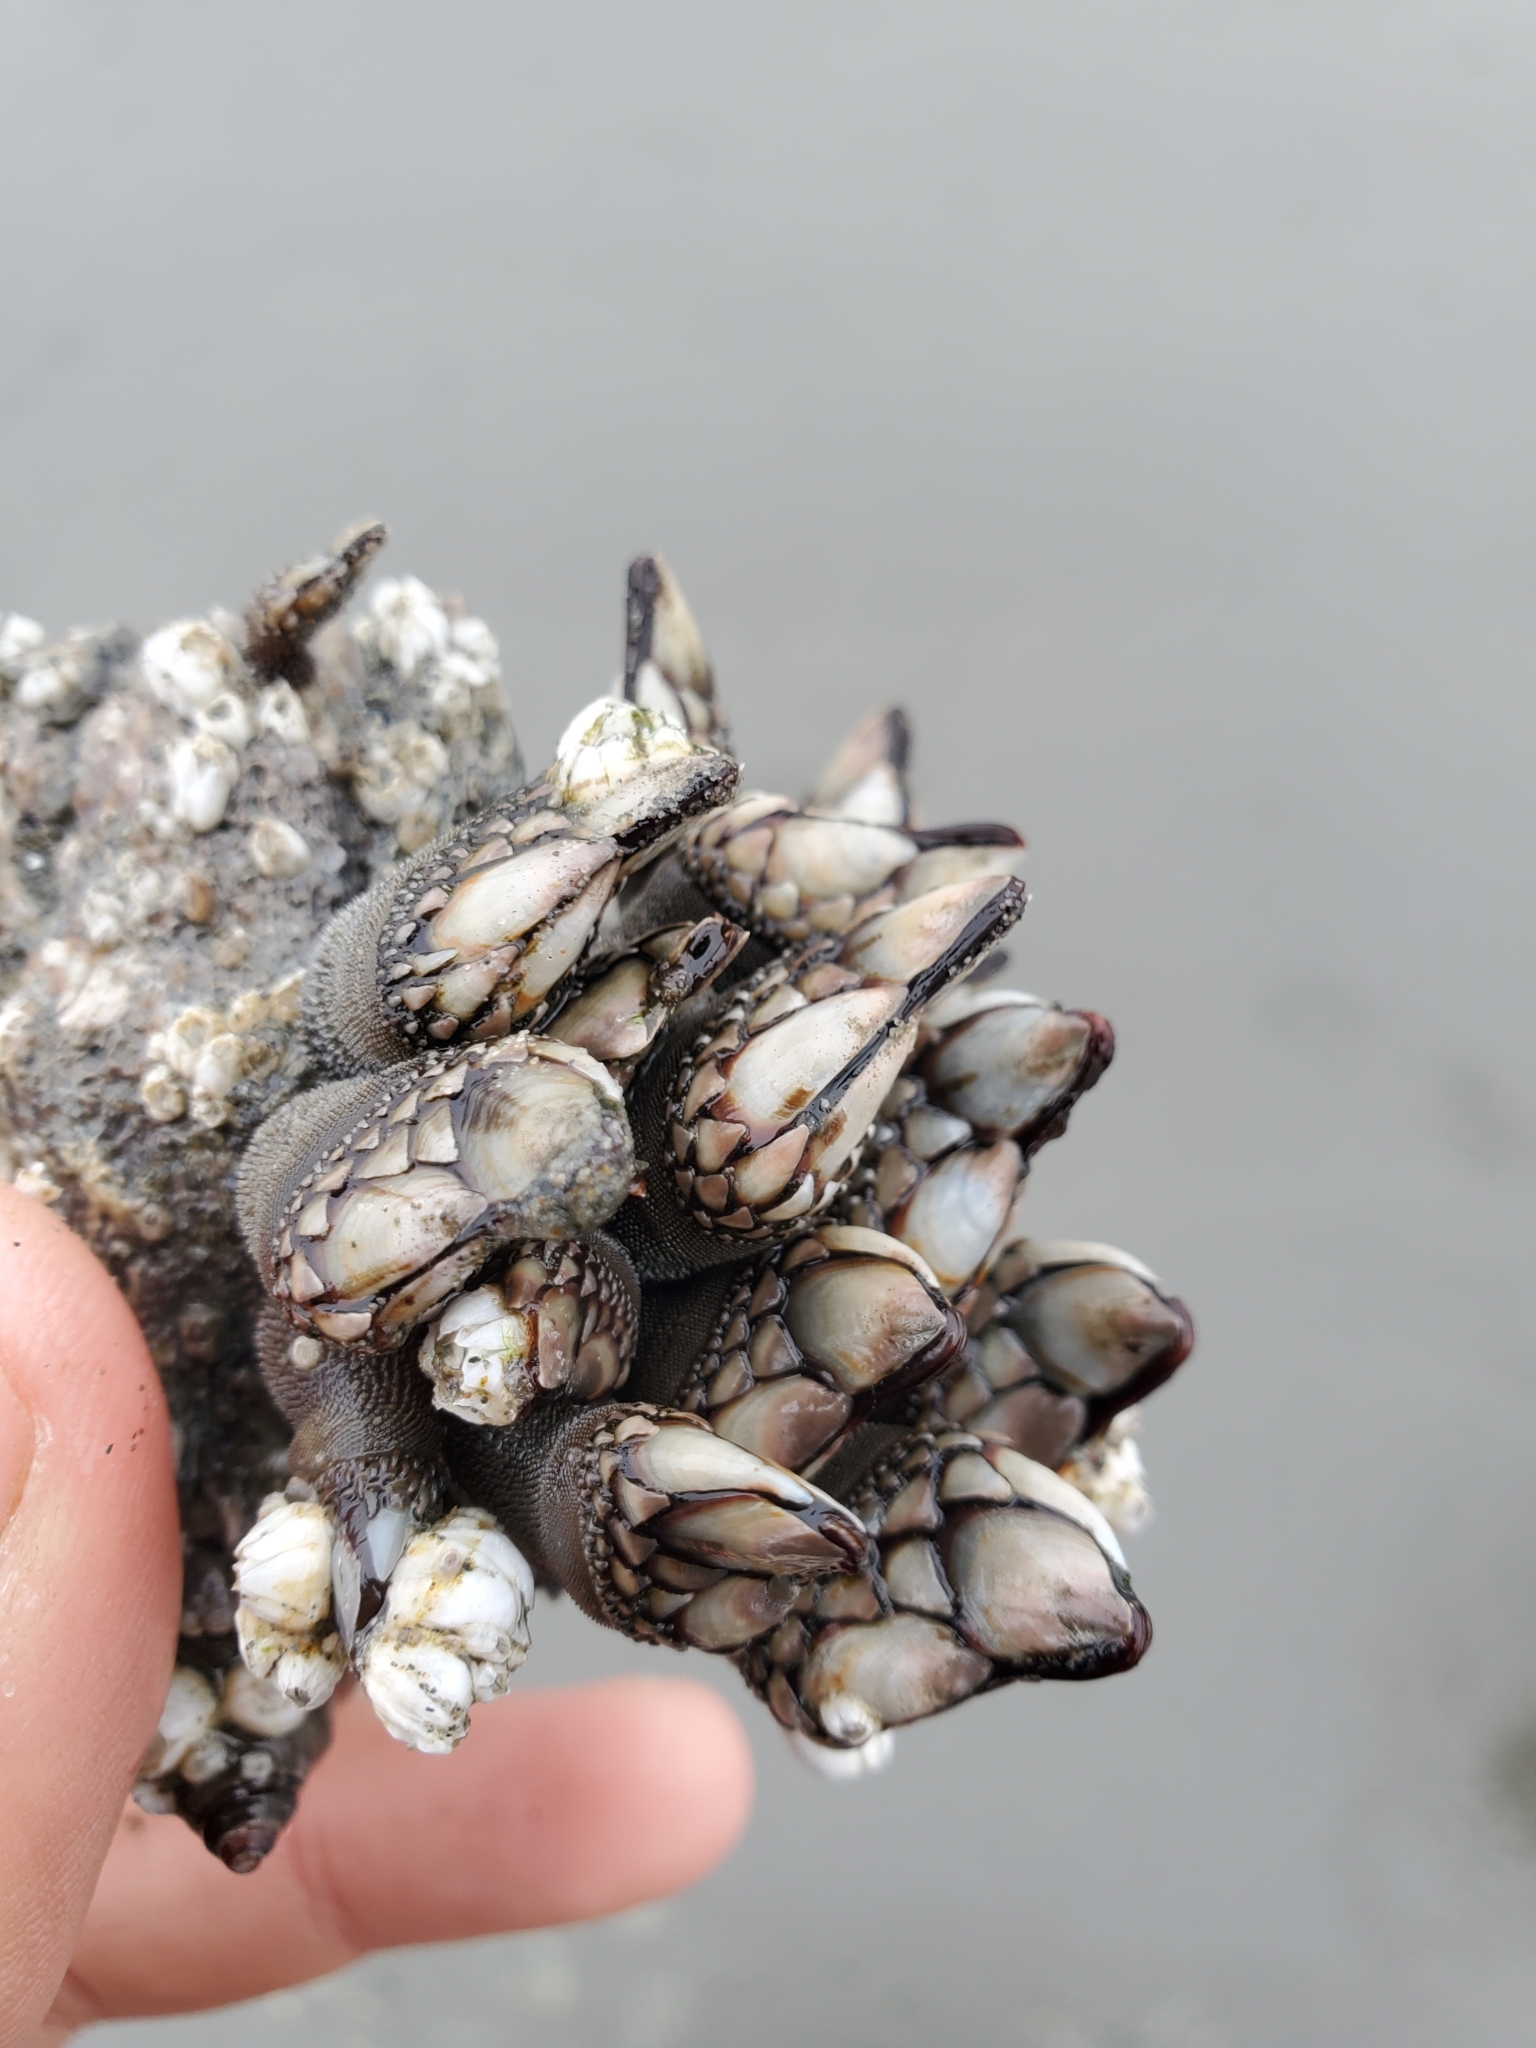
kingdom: Animalia
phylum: Arthropoda
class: Maxillopoda
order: Pedunculata
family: Pollicipedidae
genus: Pollicipes
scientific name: Pollicipes polymerus
